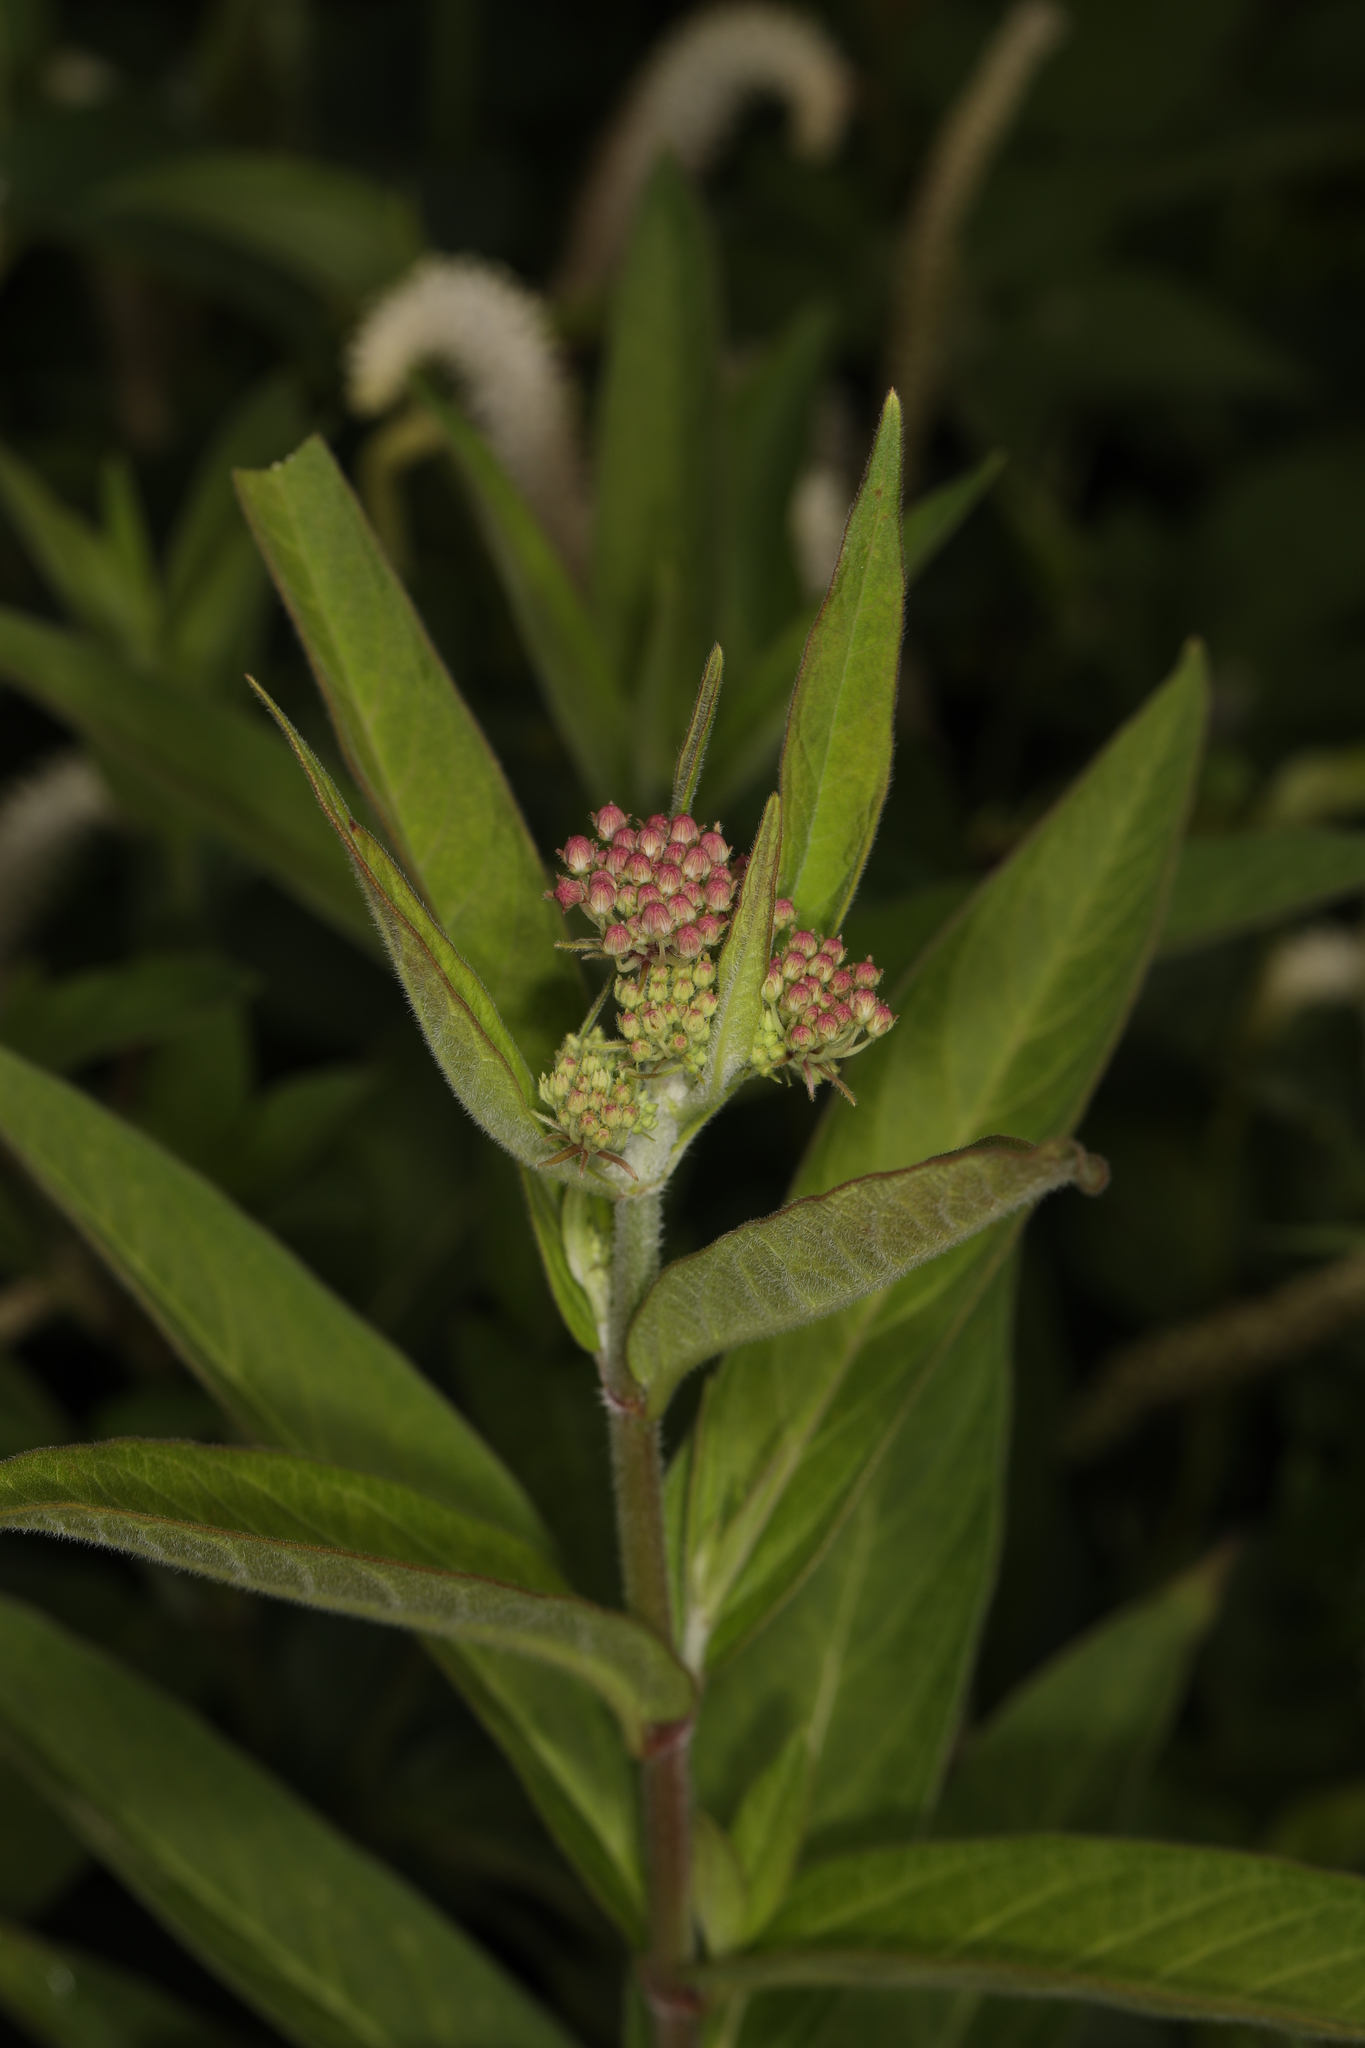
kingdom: Plantae
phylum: Tracheophyta
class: Magnoliopsida
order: Gentianales
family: Apocynaceae
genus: Asclepias
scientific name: Asclepias incarnata
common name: Swamp milkweed
